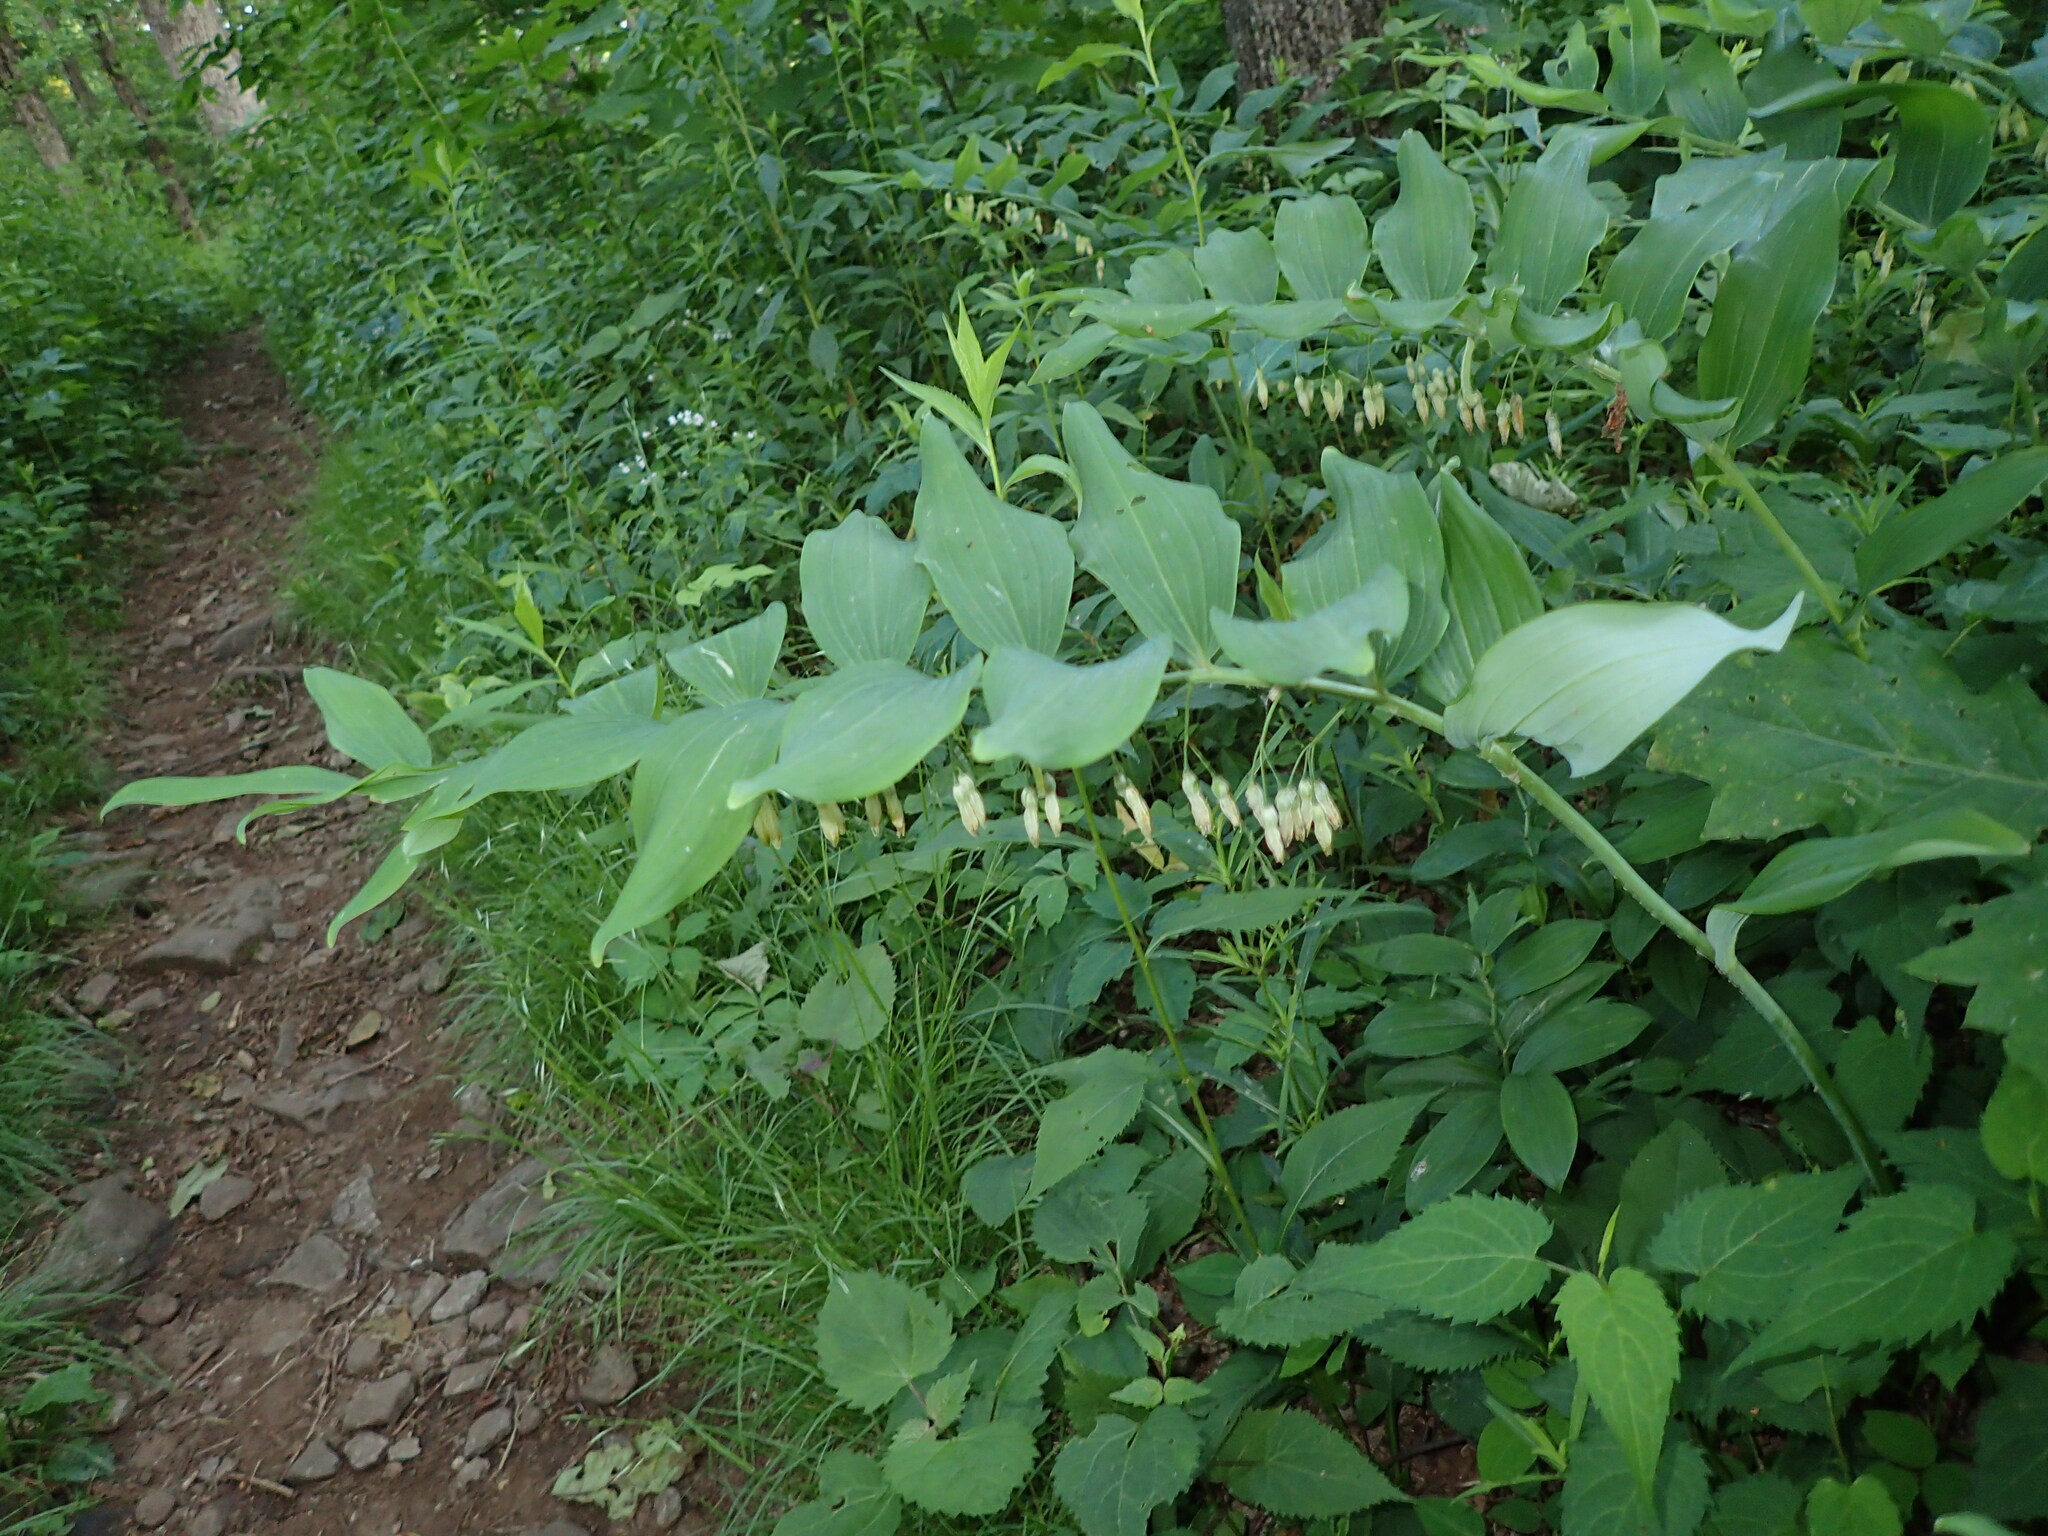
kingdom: Plantae
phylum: Tracheophyta
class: Liliopsida
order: Asparagales
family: Asparagaceae
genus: Polygonatum
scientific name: Polygonatum biflorum
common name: American solomon's-seal
